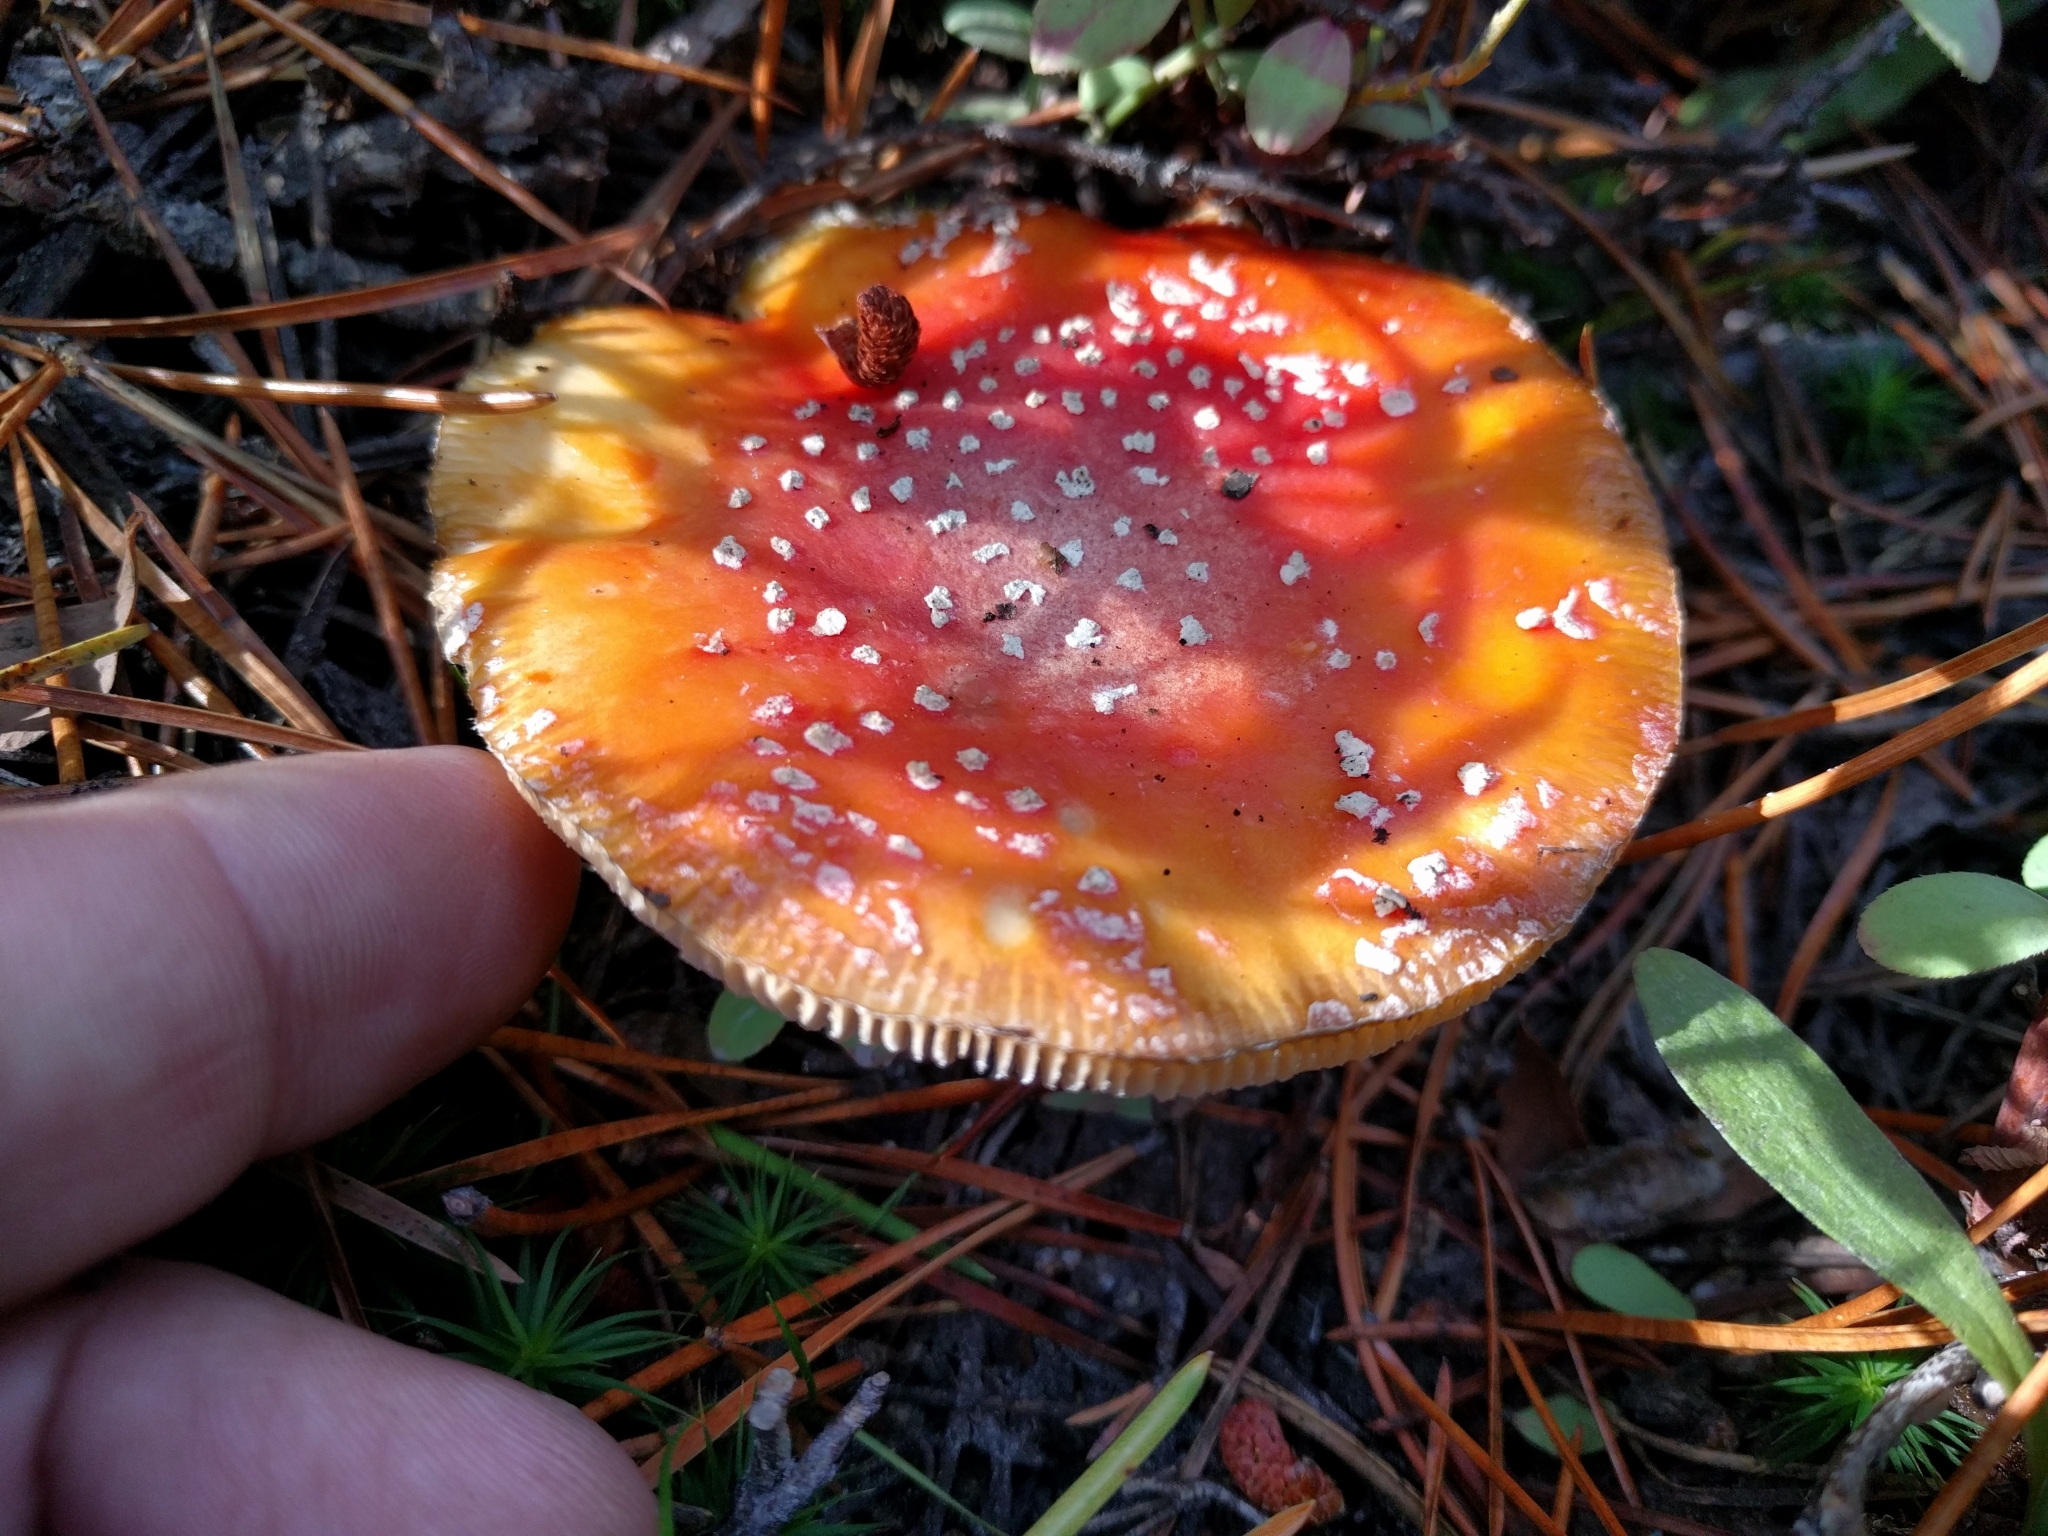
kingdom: Fungi
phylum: Basidiomycota
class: Agaricomycetes
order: Agaricales
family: Amanitaceae
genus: Amanita
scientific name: Amanita muscaria
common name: Fly agaric
